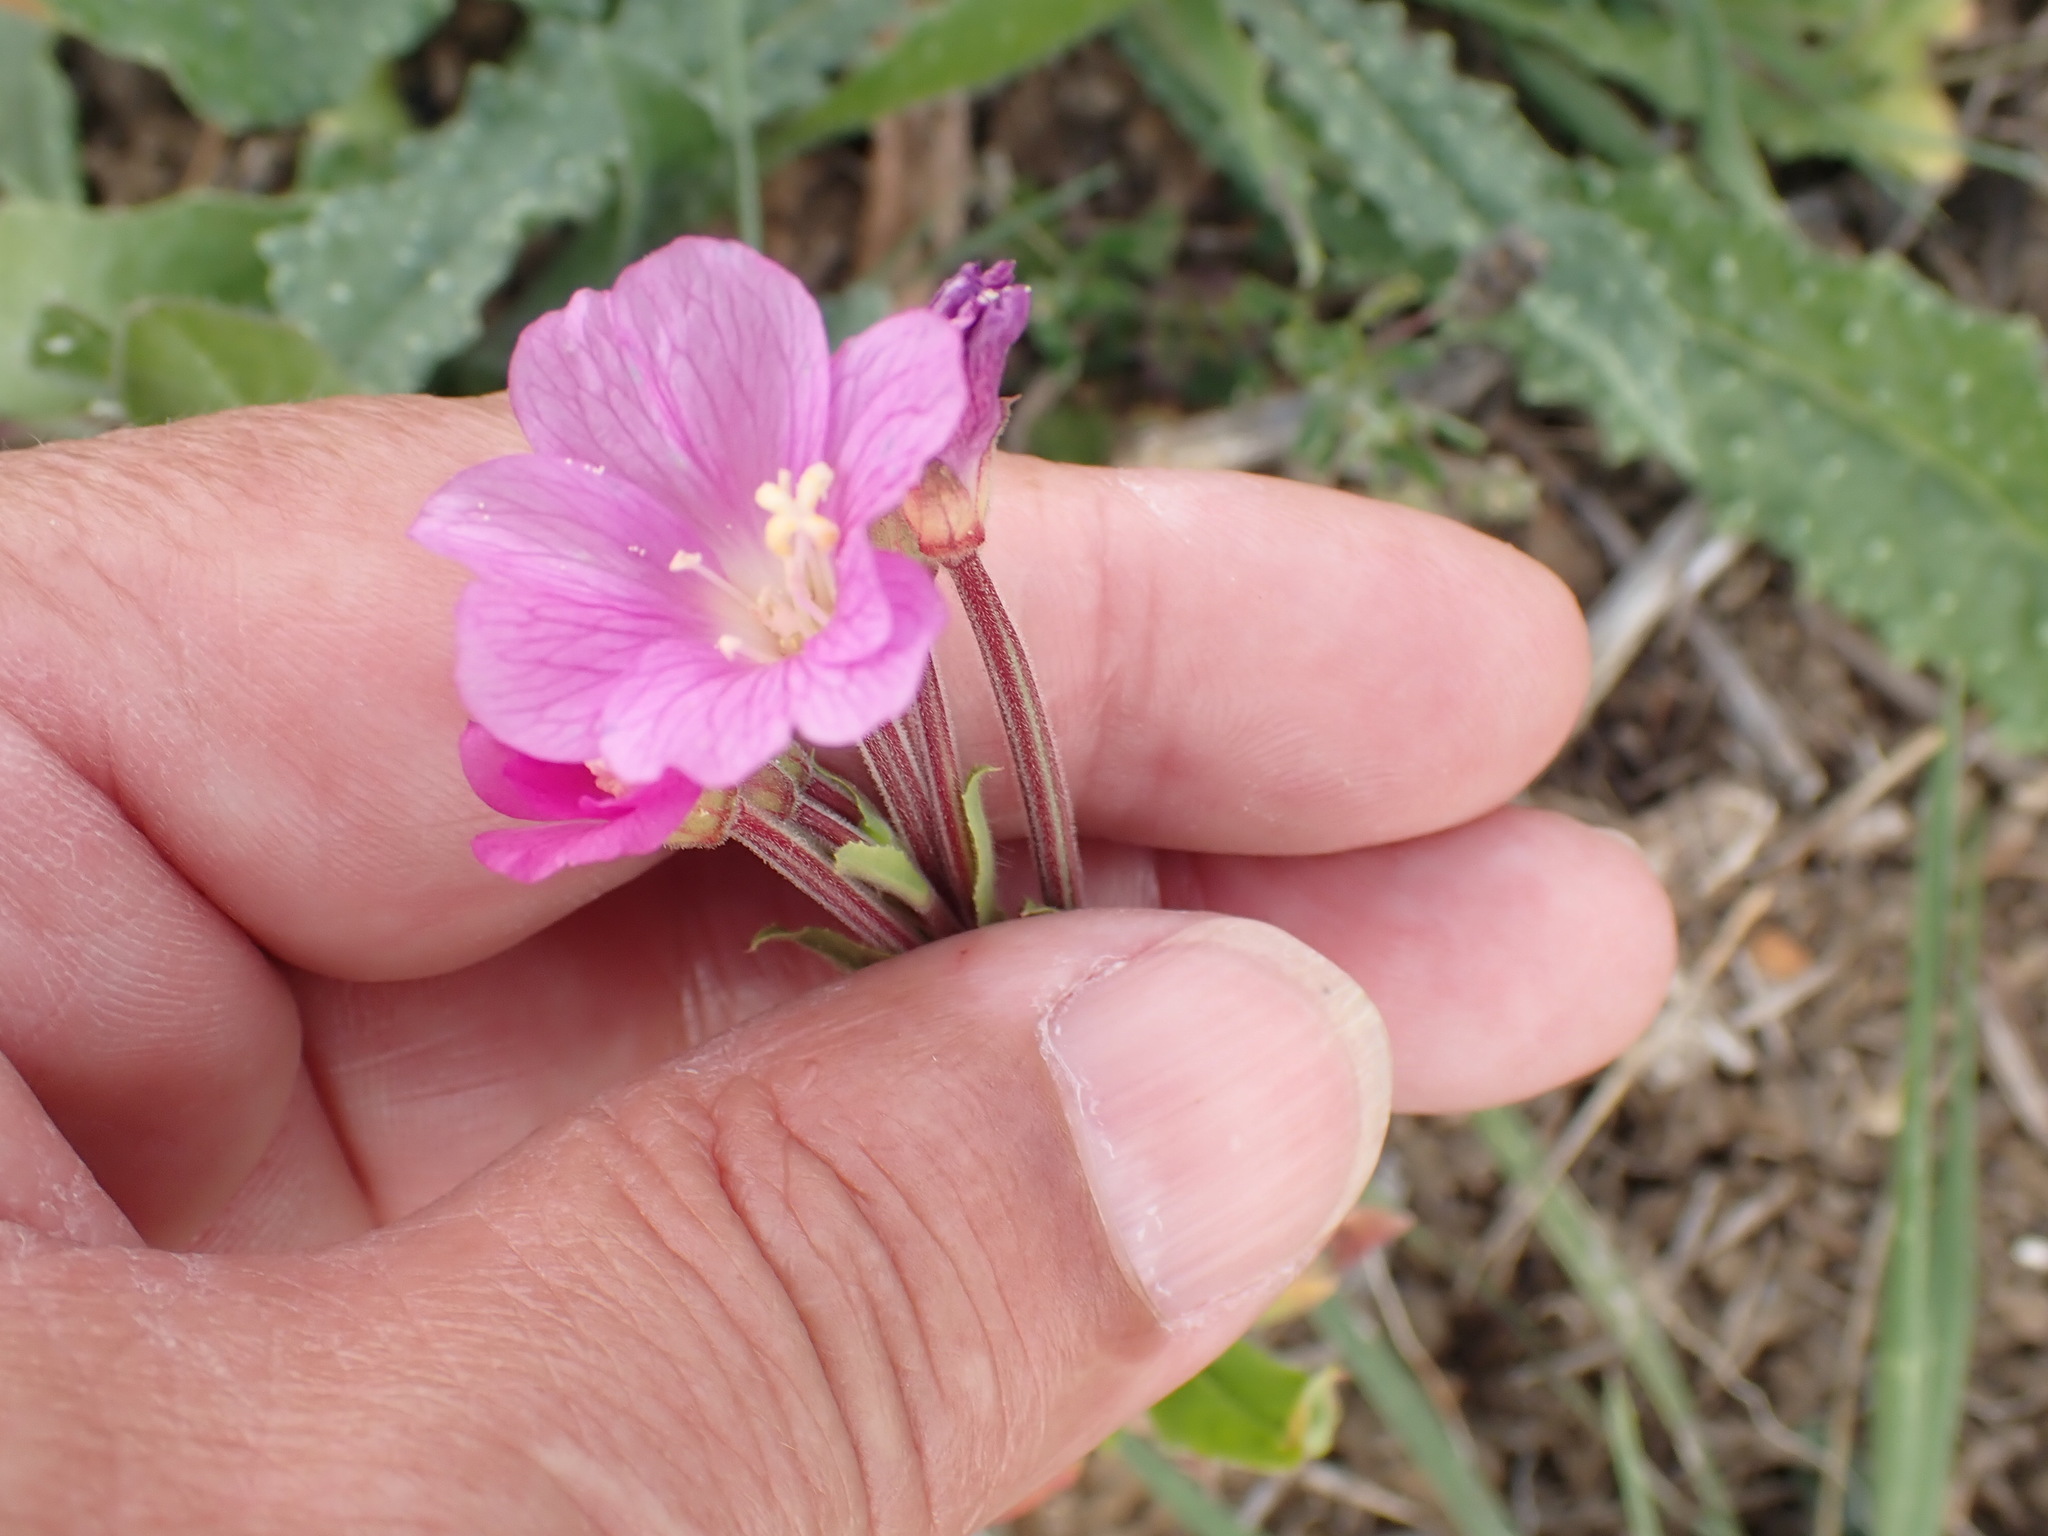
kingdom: Plantae
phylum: Tracheophyta
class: Magnoliopsida
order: Myrtales
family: Onagraceae
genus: Epilobium
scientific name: Epilobium hirsutum
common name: Great willowherb
